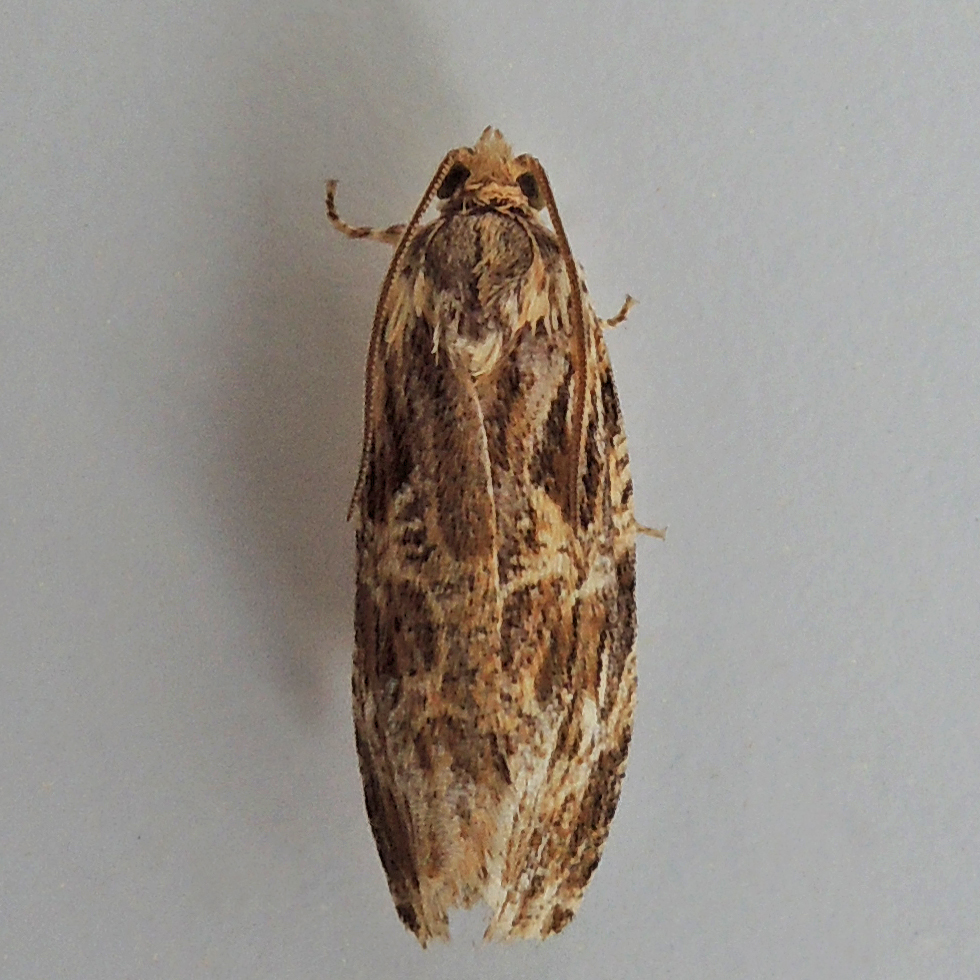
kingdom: Animalia
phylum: Arthropoda
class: Insecta
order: Lepidoptera
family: Tortricidae
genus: Phaecasiophora
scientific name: Phaecasiophora confixana
